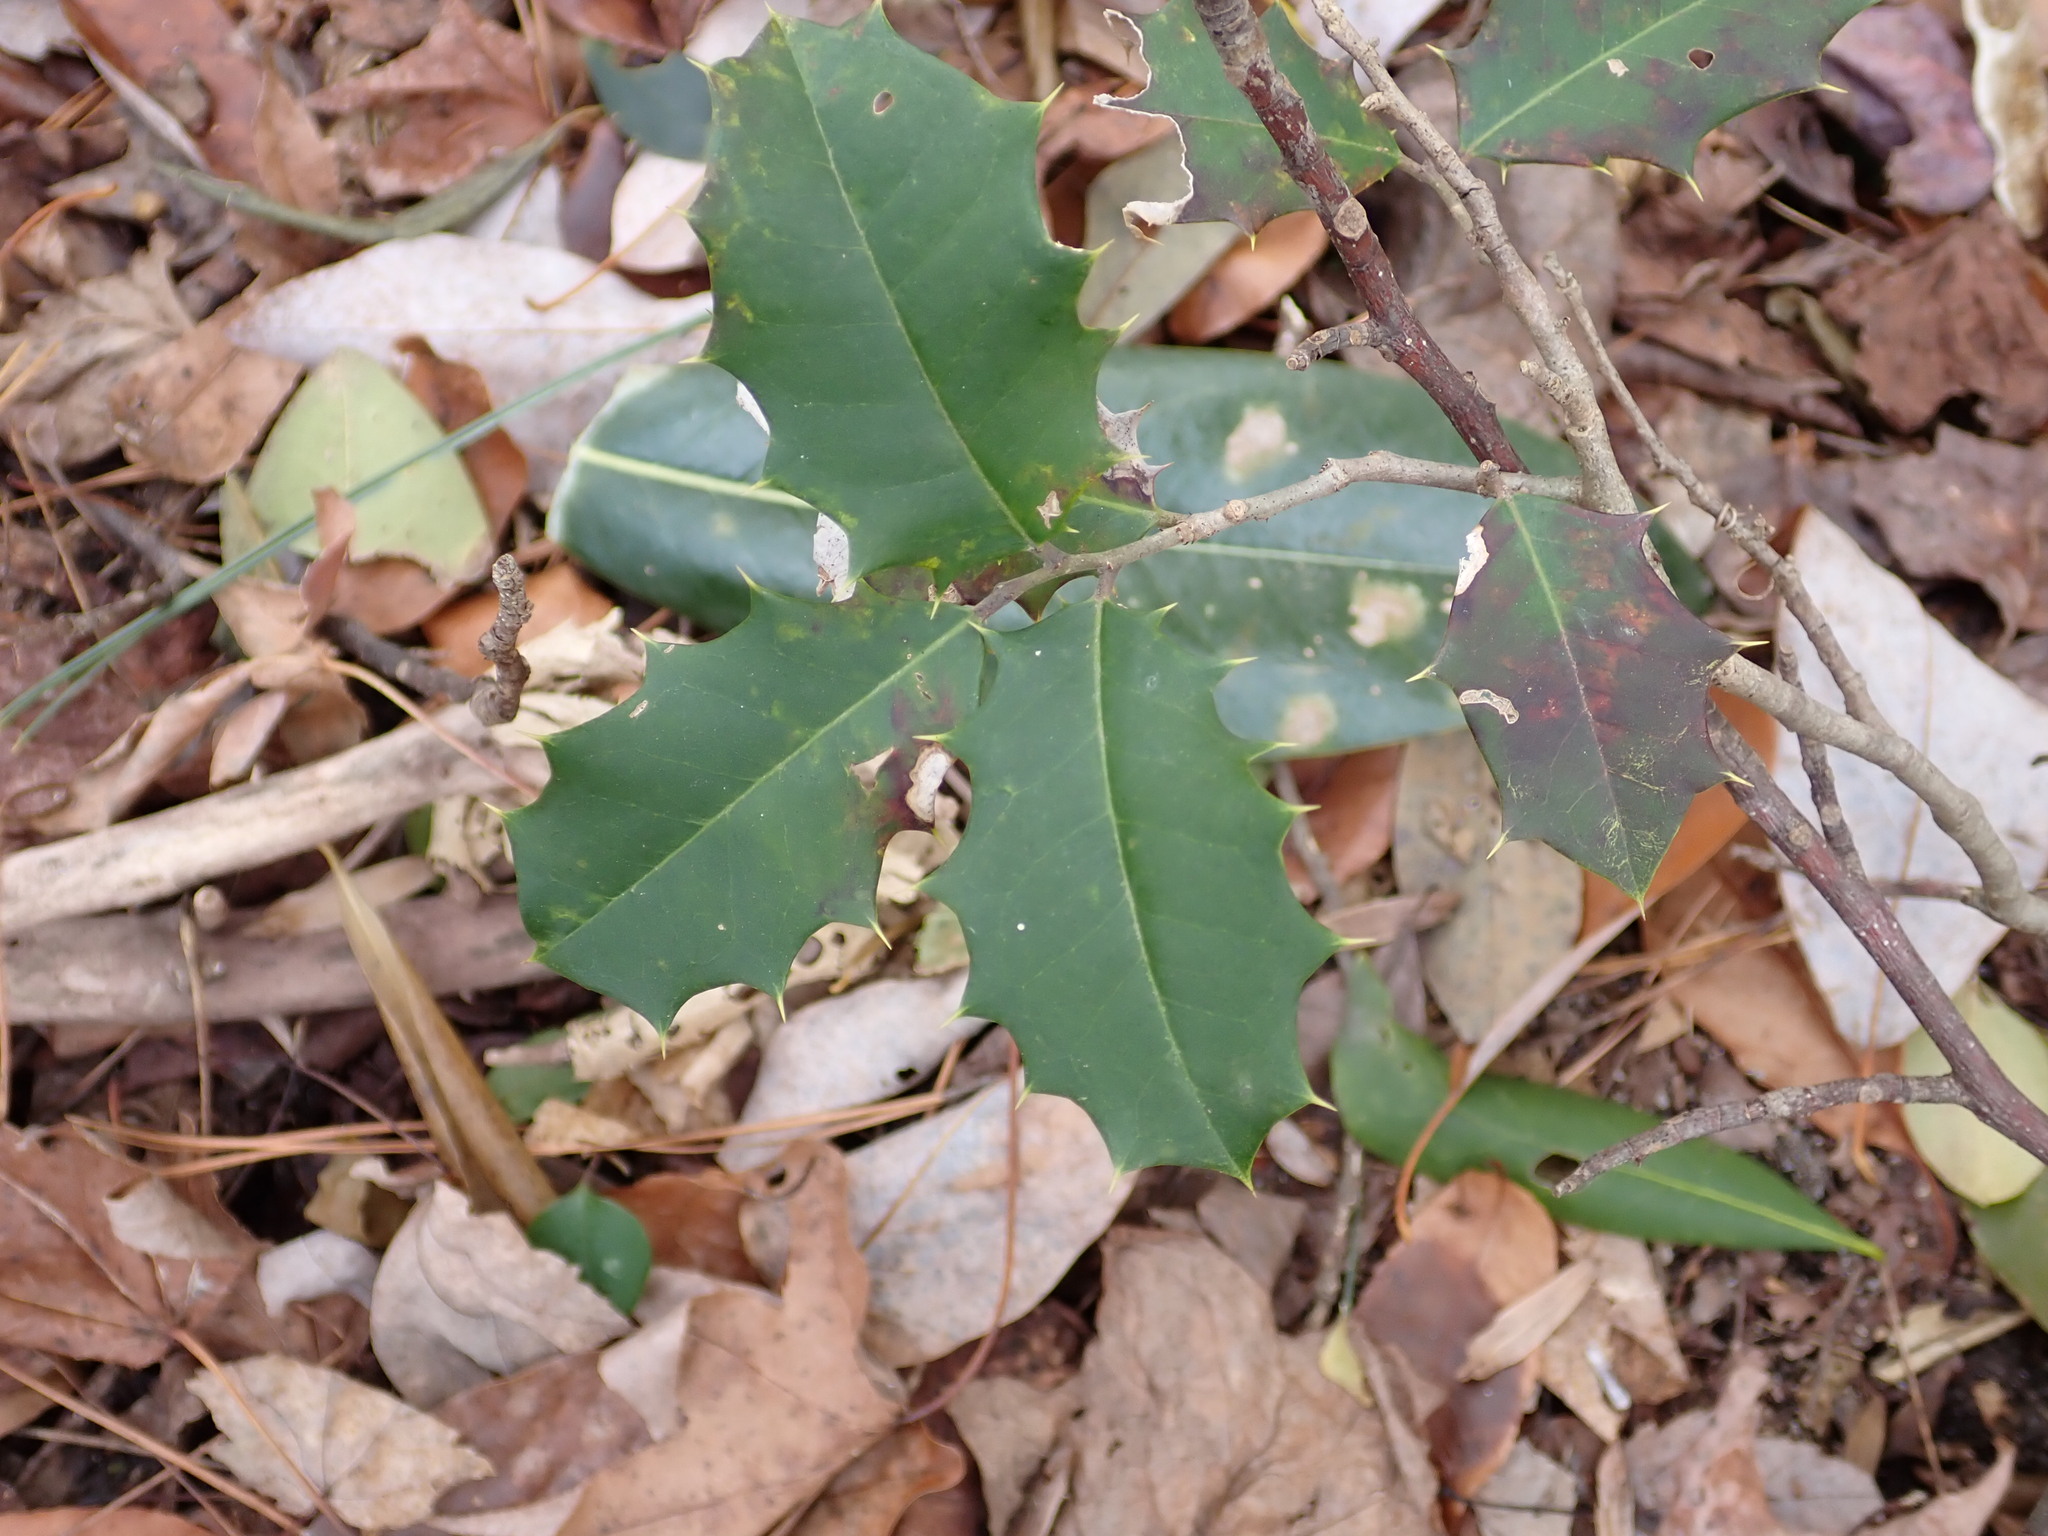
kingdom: Plantae
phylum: Tracheophyta
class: Magnoliopsida
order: Aquifoliales
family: Aquifoliaceae
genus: Ilex
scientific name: Ilex opaca
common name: American holly
